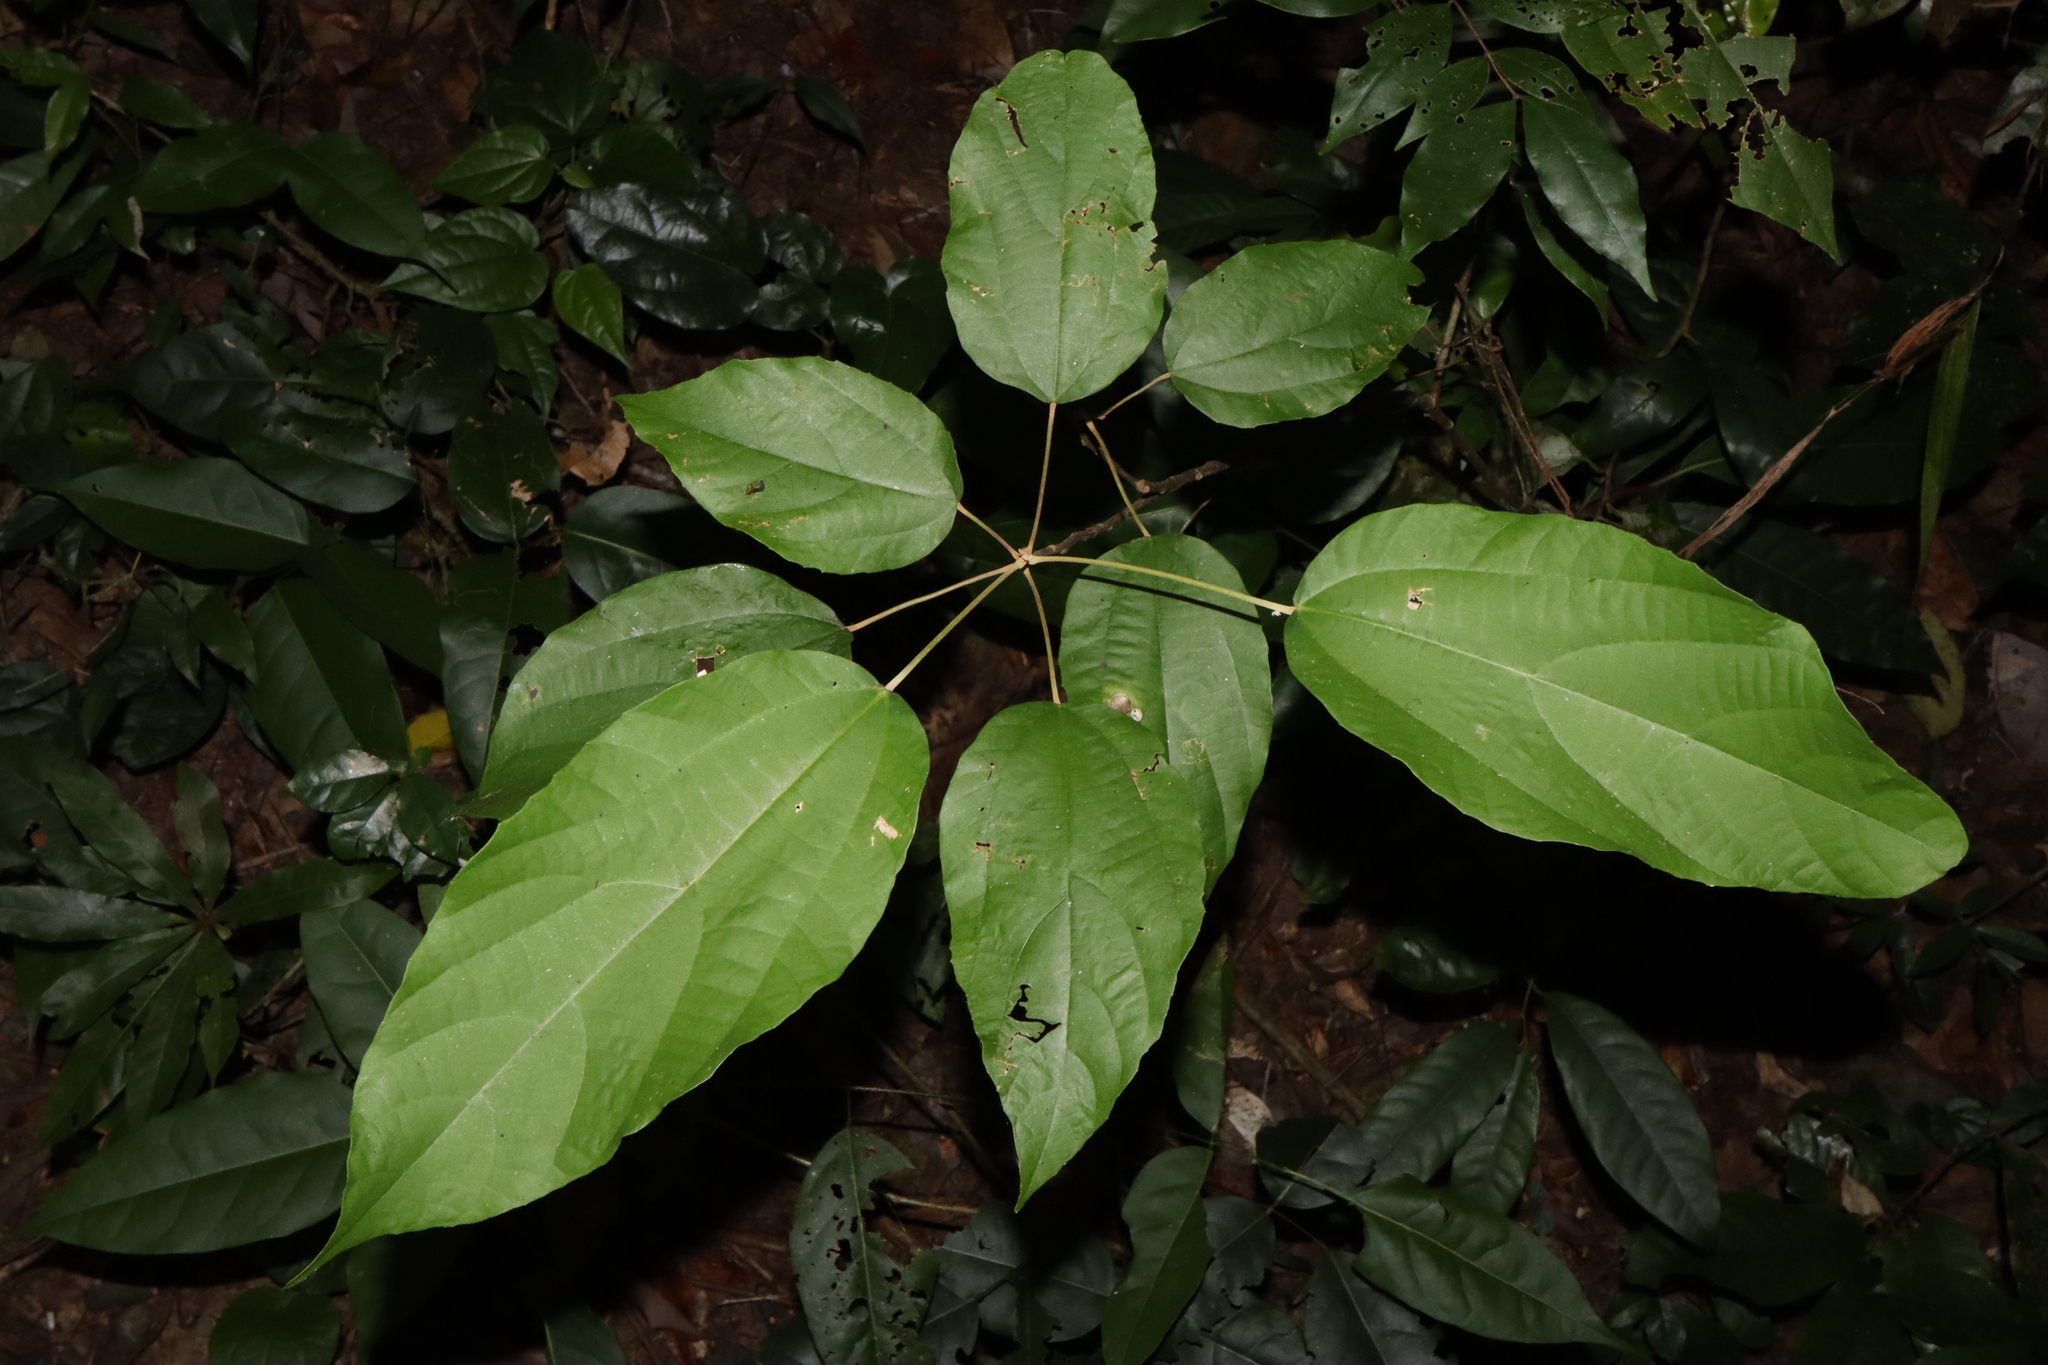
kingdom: Plantae
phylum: Tracheophyta
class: Magnoliopsida
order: Malpighiales
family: Euphorbiaceae
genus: Mallotus
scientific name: Mallotus philippensis
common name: Kamala tree
